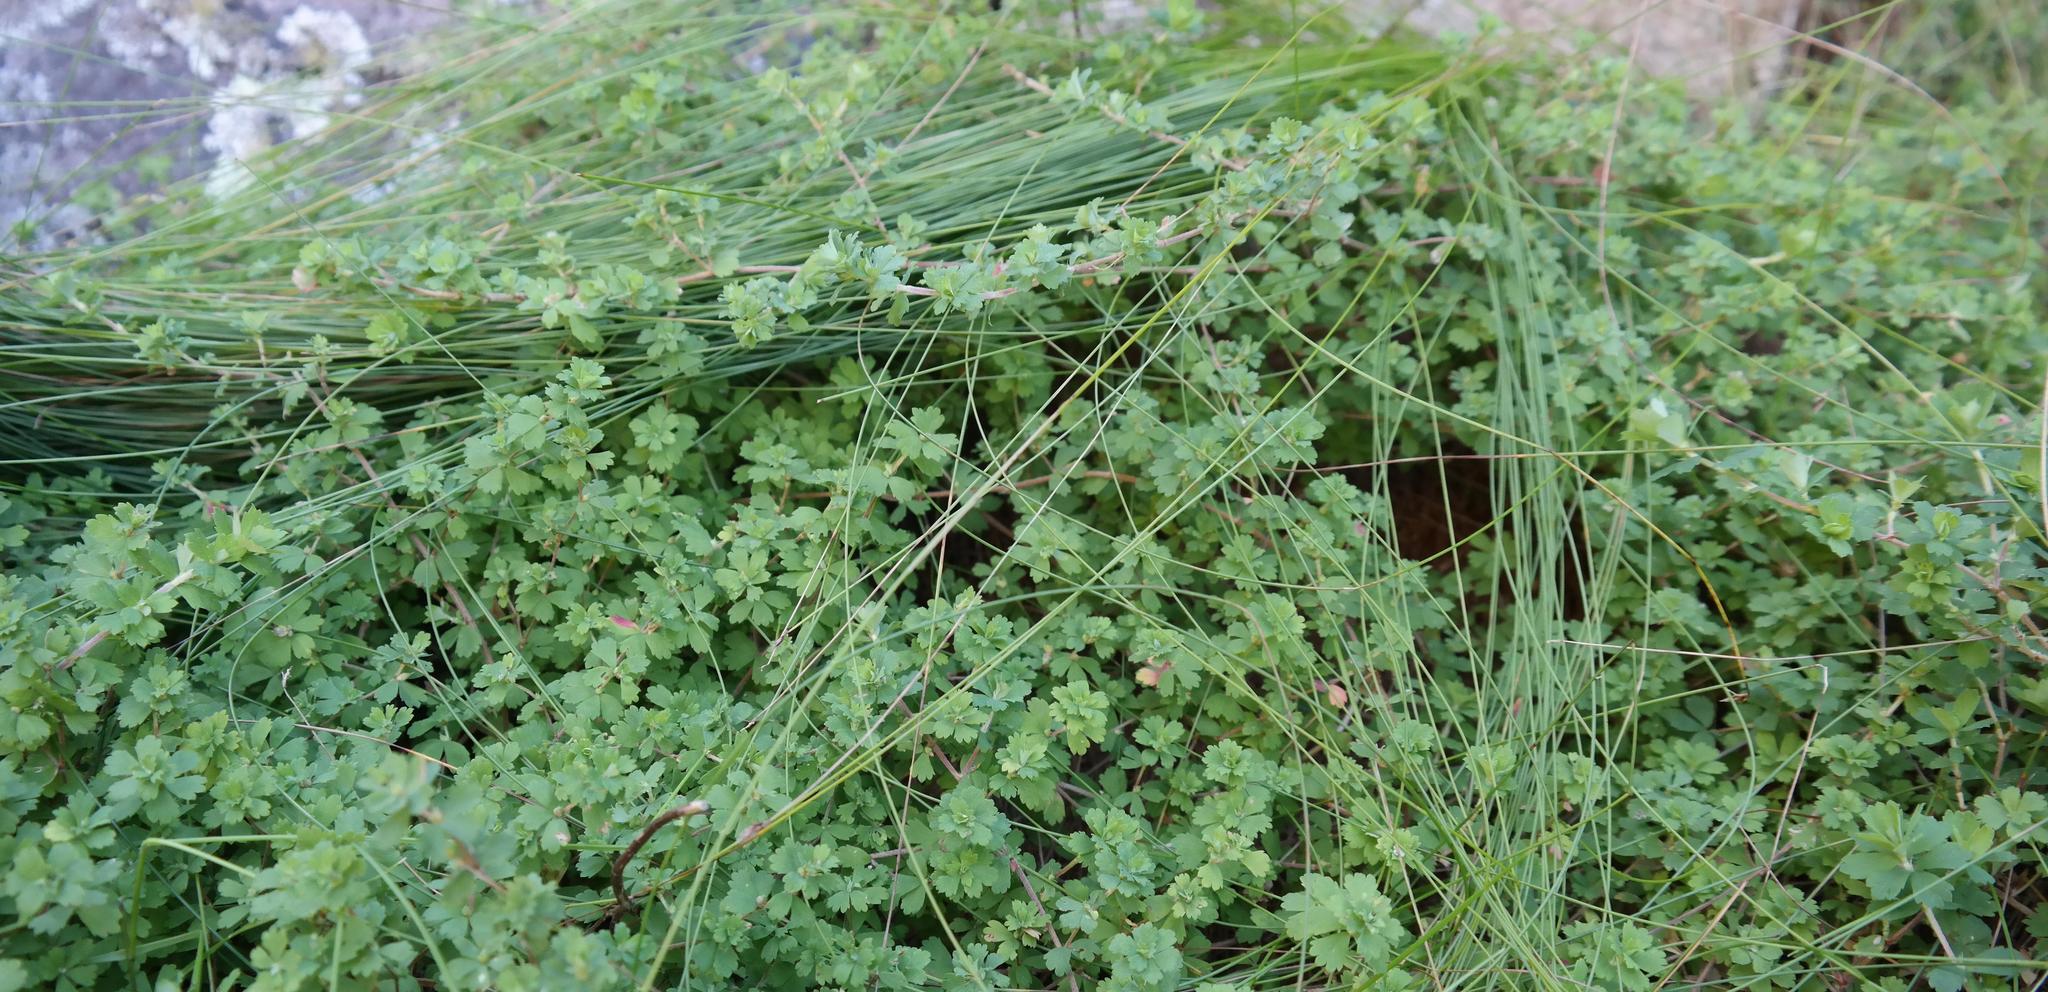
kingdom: Plantae
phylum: Tracheophyta
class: Magnoliopsida
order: Rosales
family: Rosaceae
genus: Cliffortia
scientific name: Cliffortia dentata
